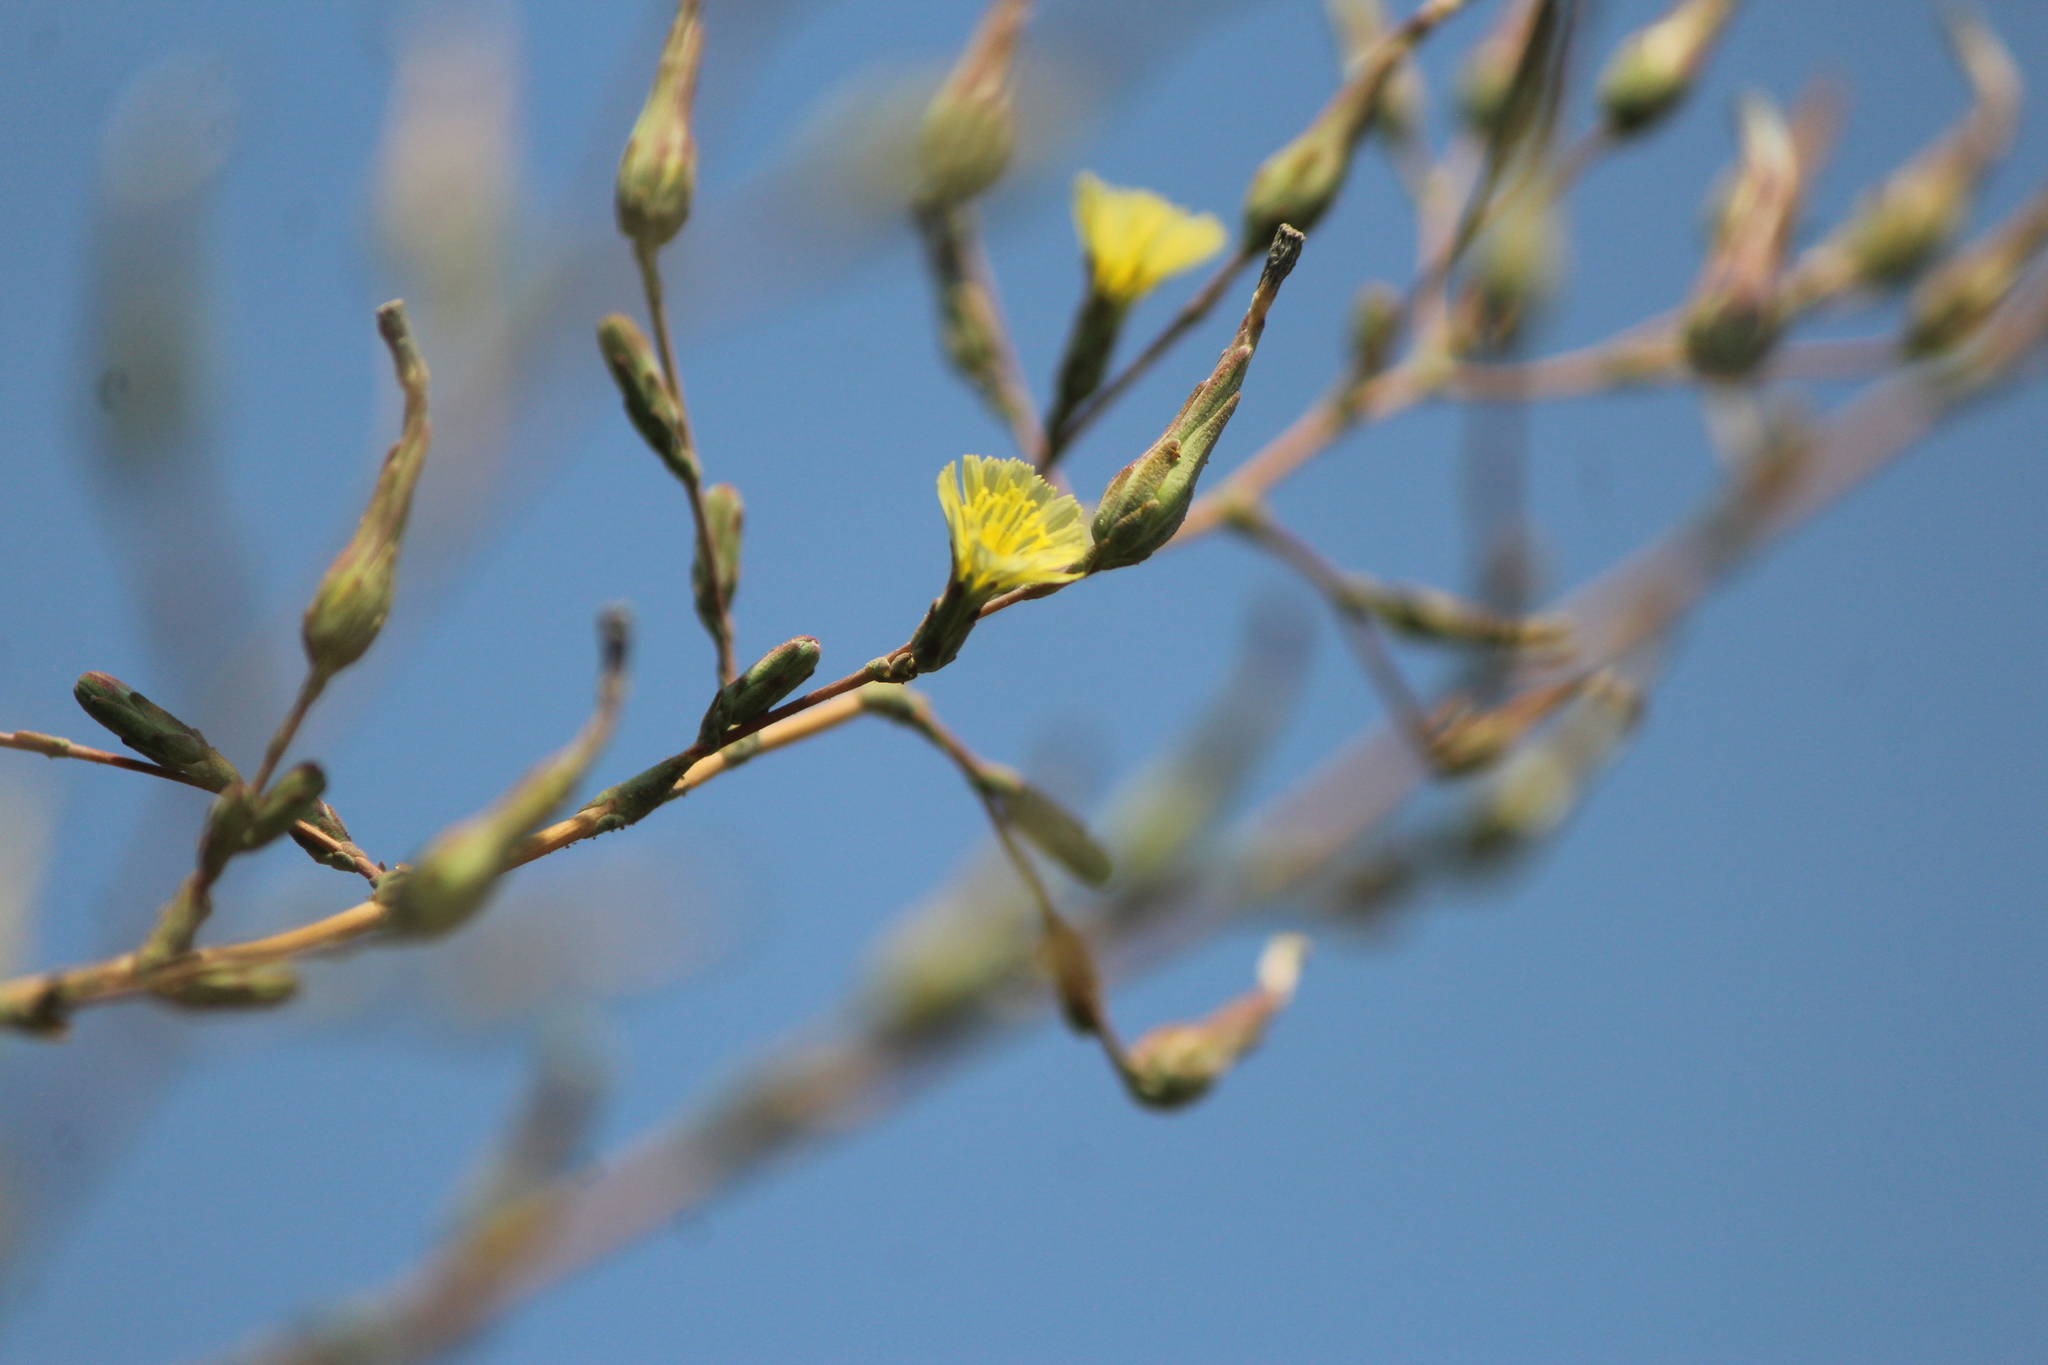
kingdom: Plantae
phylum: Tracheophyta
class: Magnoliopsida
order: Asterales
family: Asteraceae
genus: Sonchus
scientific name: Sonchus oleraceus
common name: Common sowthistle
